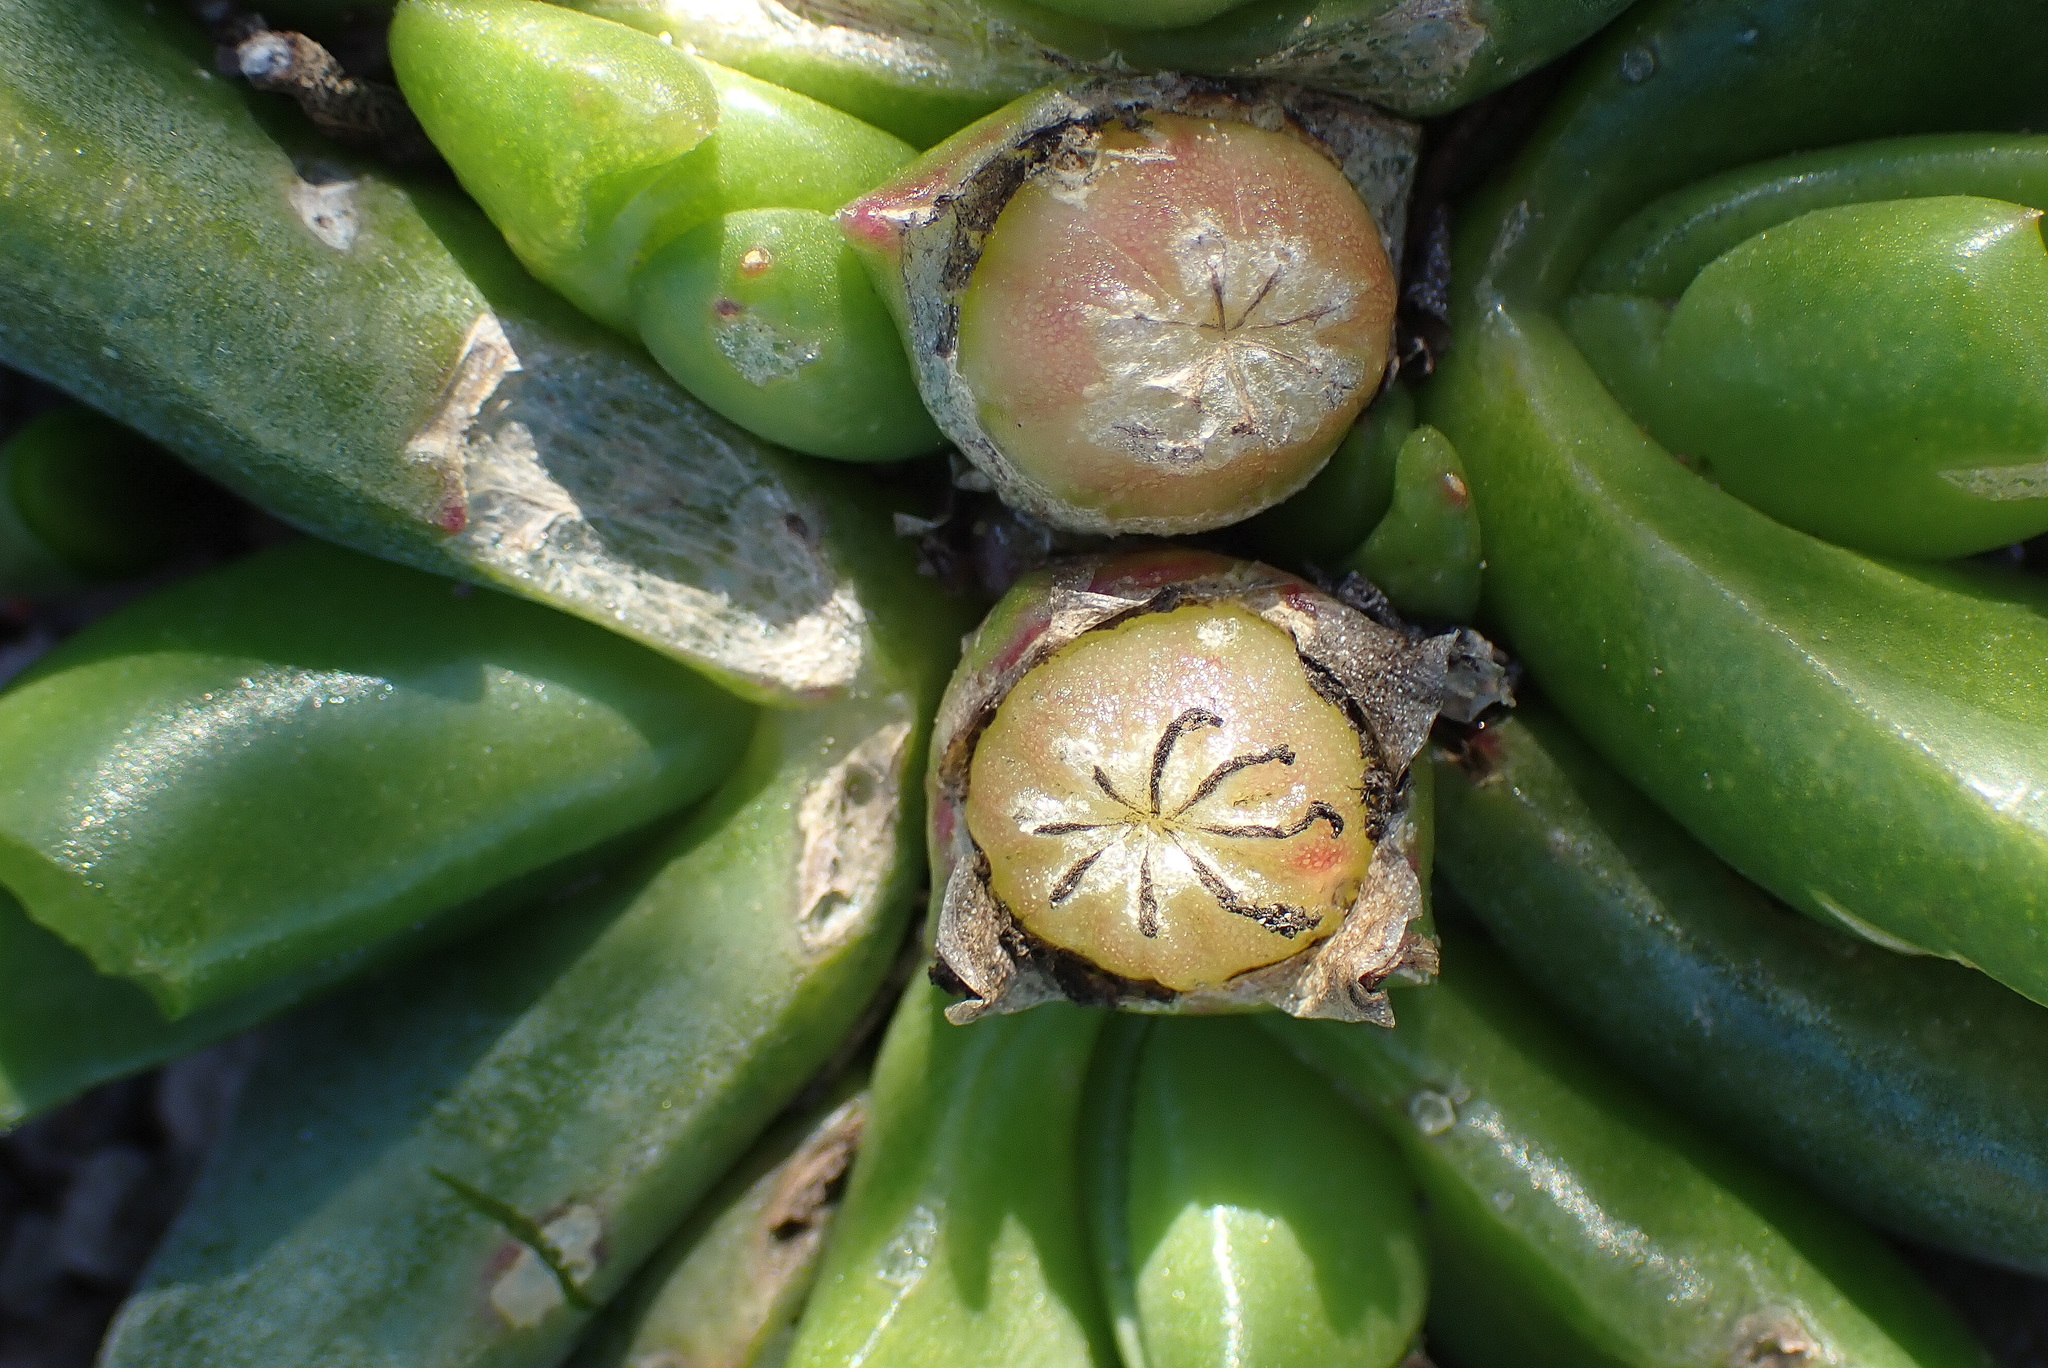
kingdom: Plantae
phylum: Tracheophyta
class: Magnoliopsida
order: Caryophyllales
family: Aizoaceae
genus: Glottiphyllum
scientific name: Glottiphyllum depressum
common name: Fig-marigold
